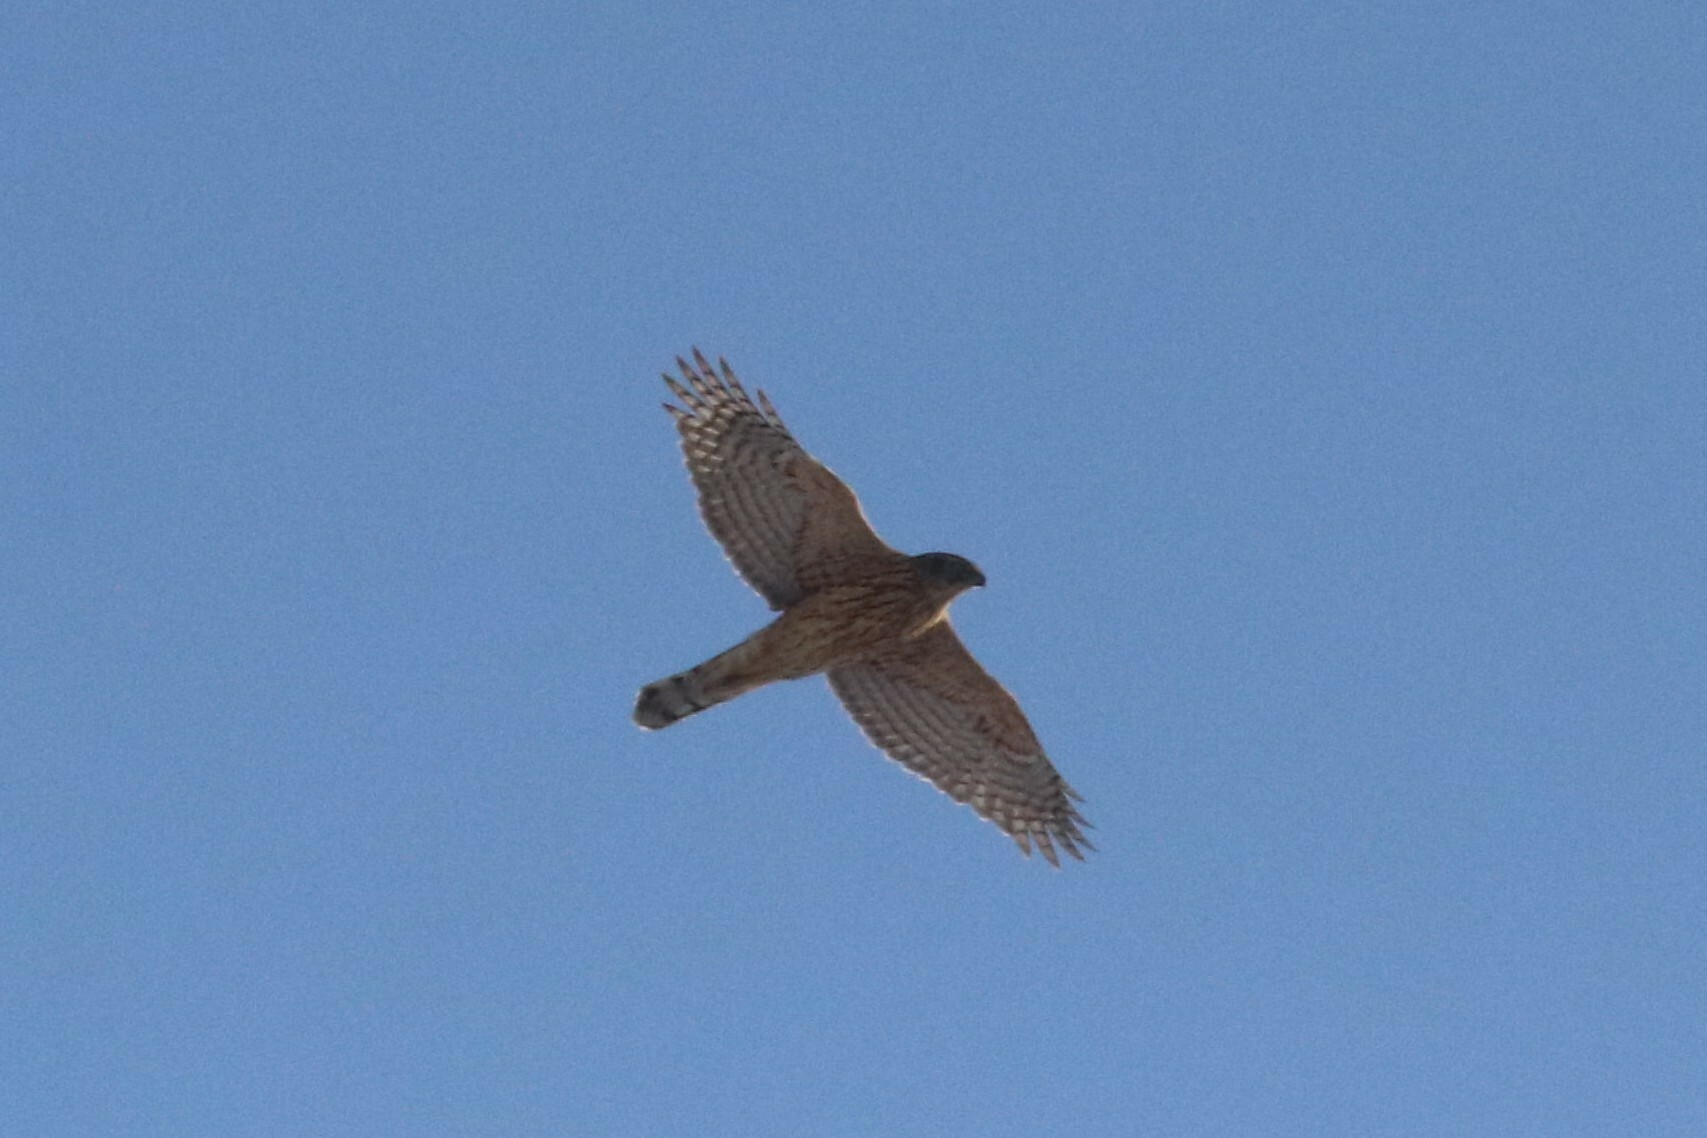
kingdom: Animalia
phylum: Chordata
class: Aves
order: Accipitriformes
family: Accipitridae
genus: Accipiter
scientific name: Accipiter gentilis
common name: Northern goshawk
